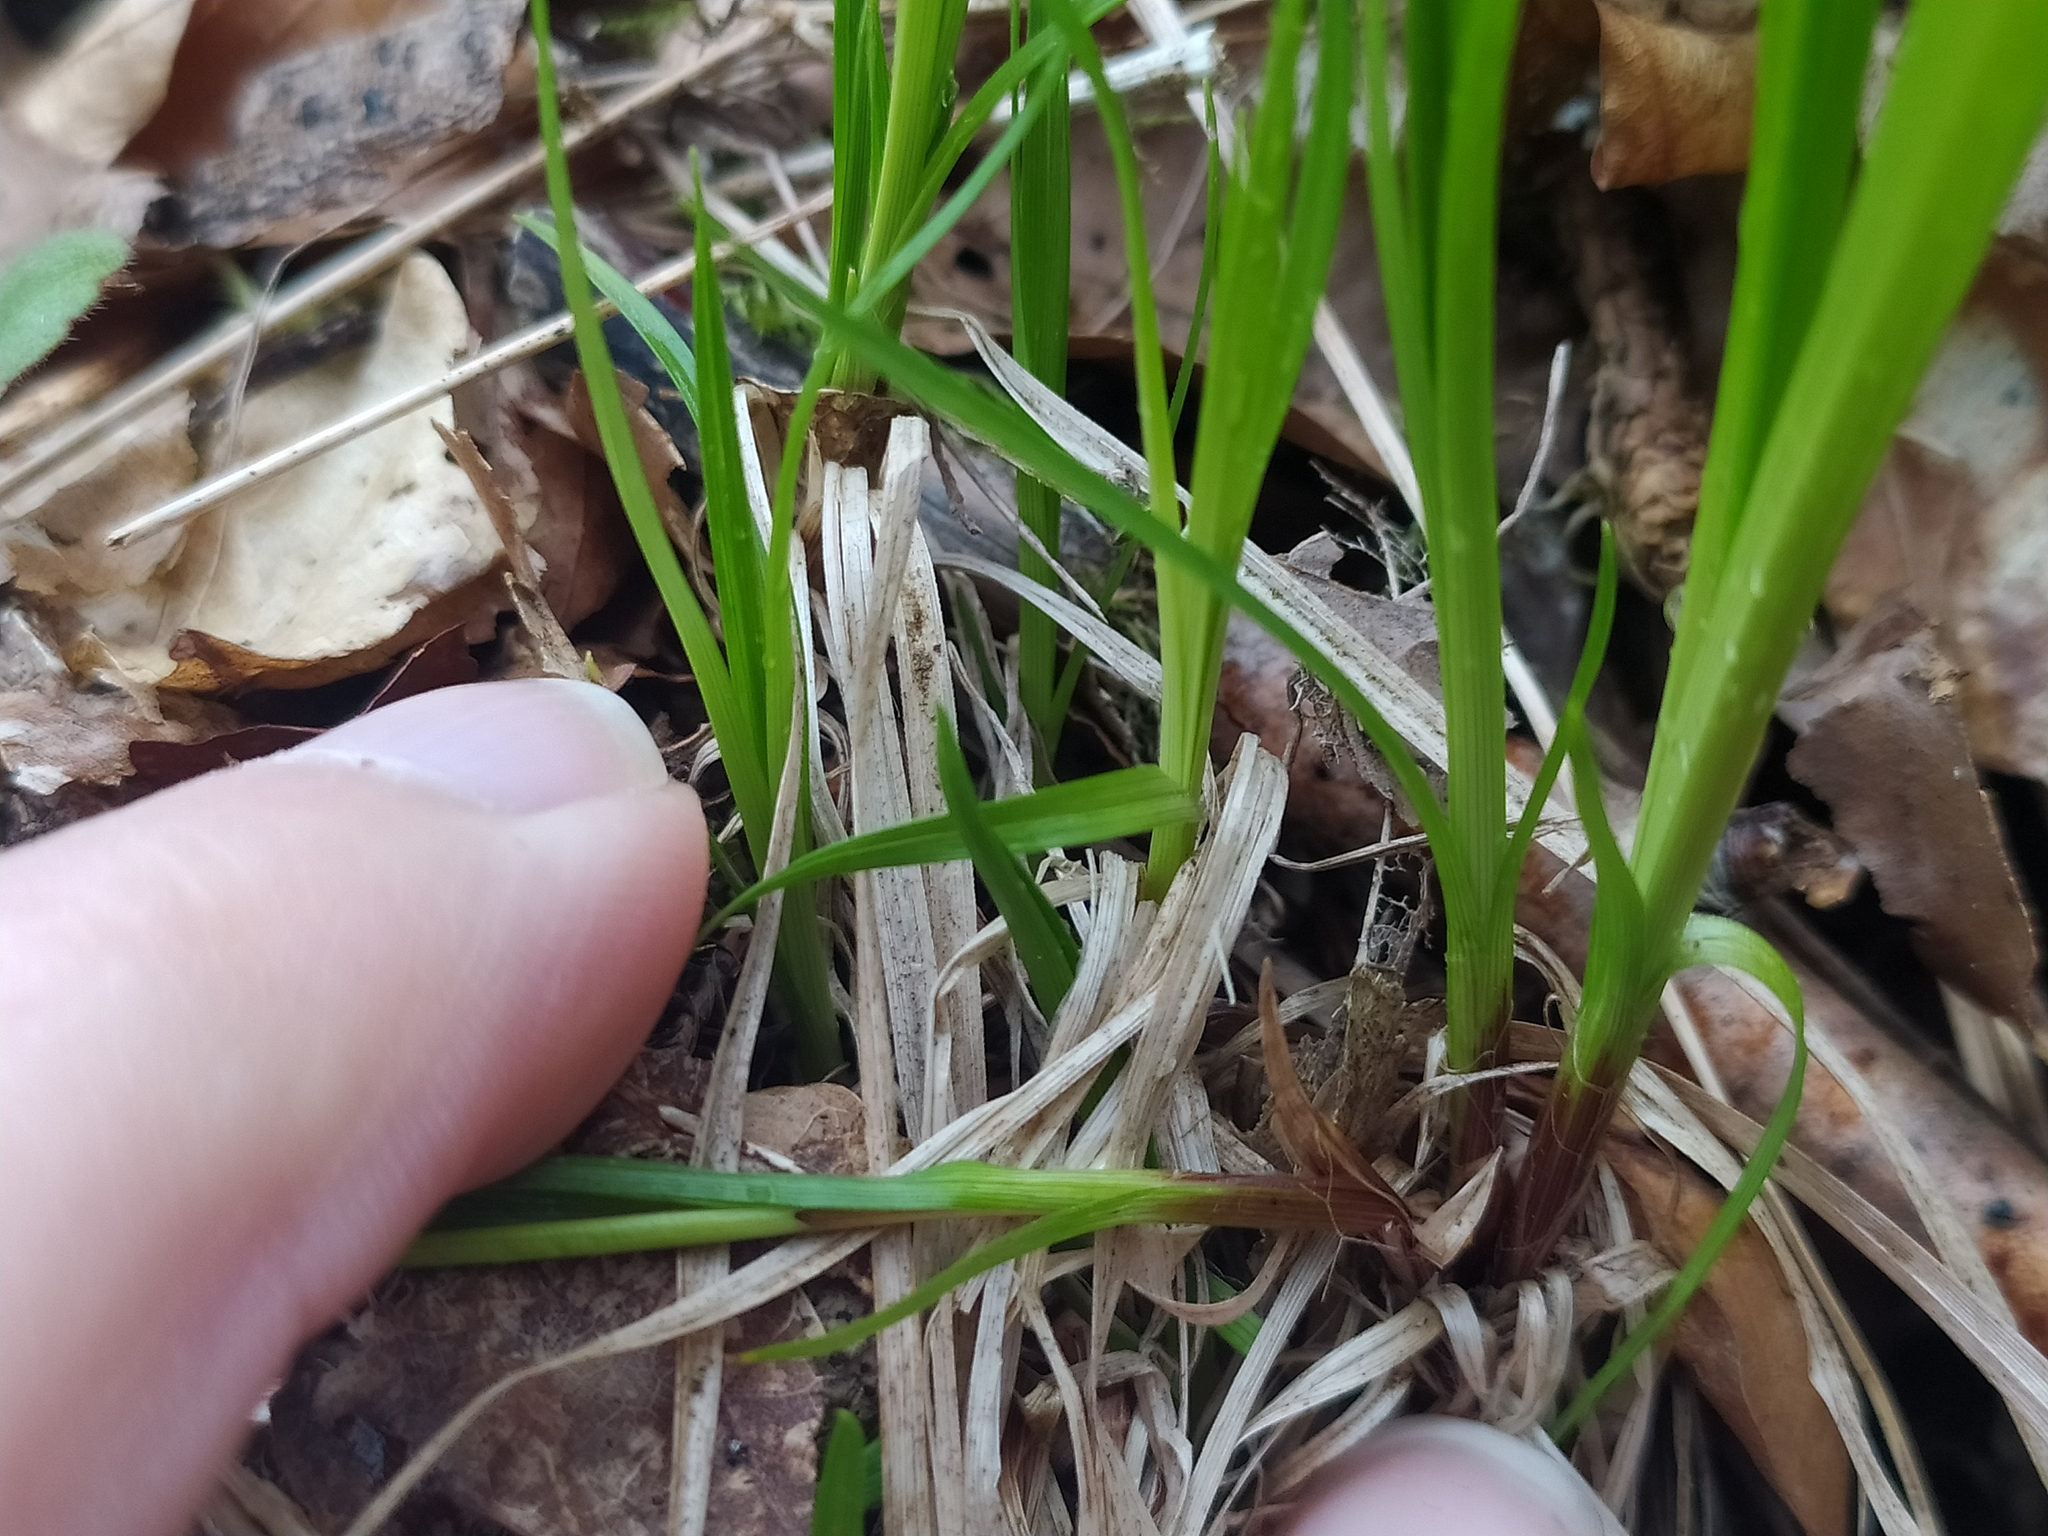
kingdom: Plantae
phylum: Tracheophyta
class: Liliopsida
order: Poales
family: Cyperaceae
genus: Carex
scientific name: Carex montana
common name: Soft-leaved sedge
